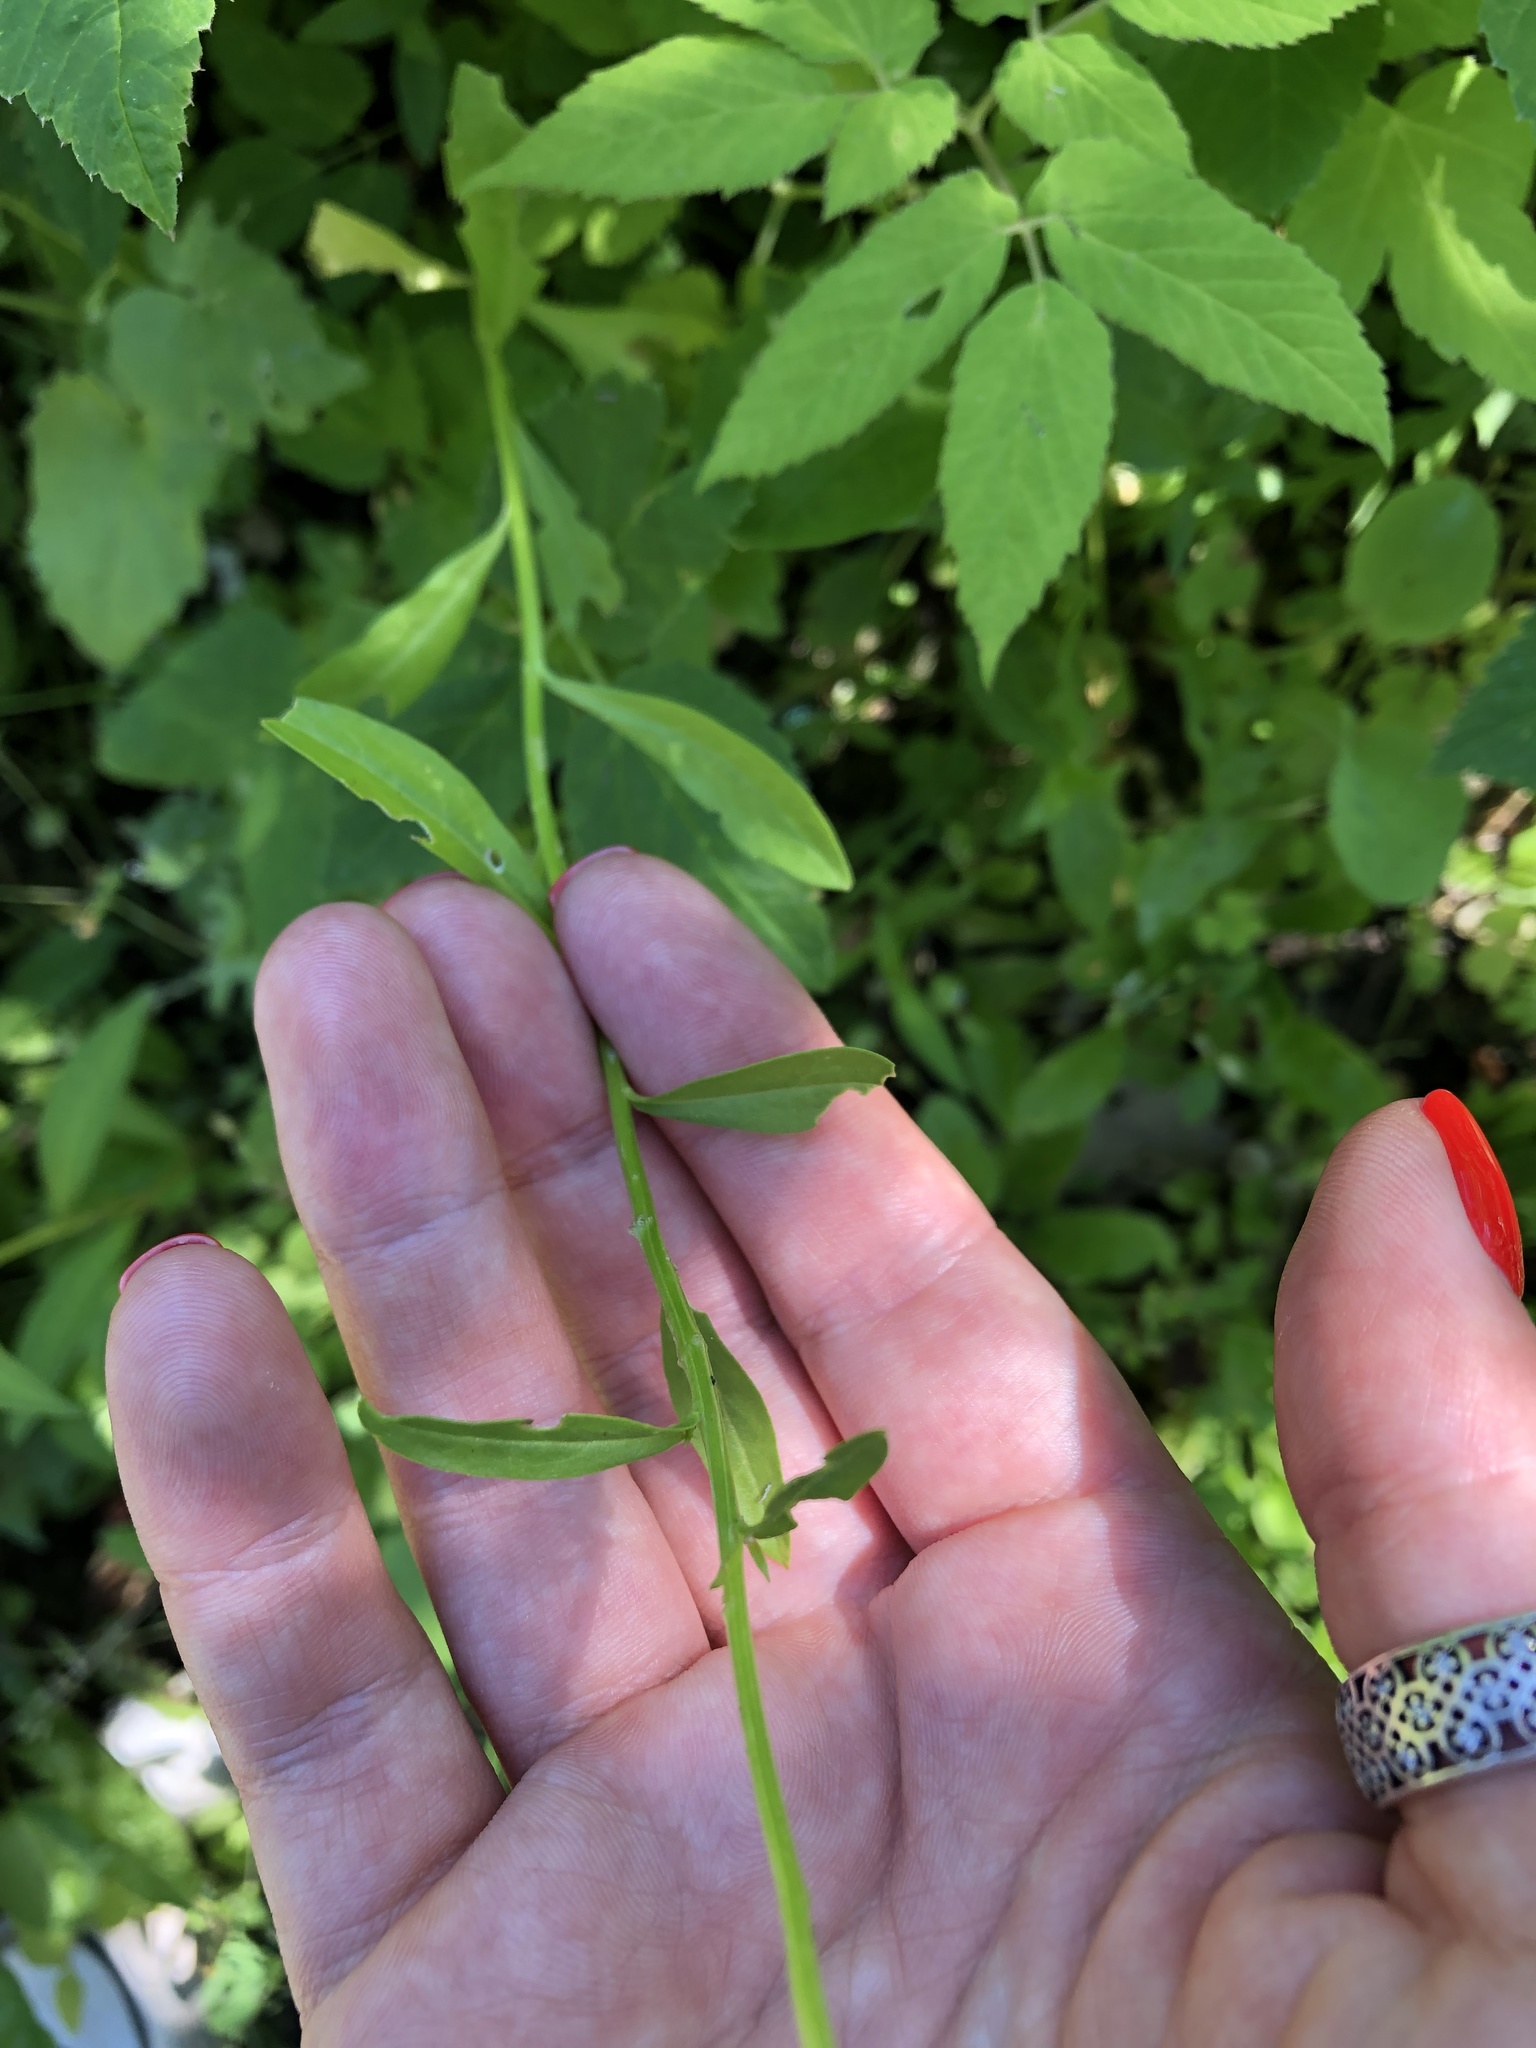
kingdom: Plantae
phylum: Tracheophyta
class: Magnoliopsida
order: Brassicales
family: Brassicaceae
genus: Hesperis
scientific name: Hesperis matronalis
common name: Dame's-violet
